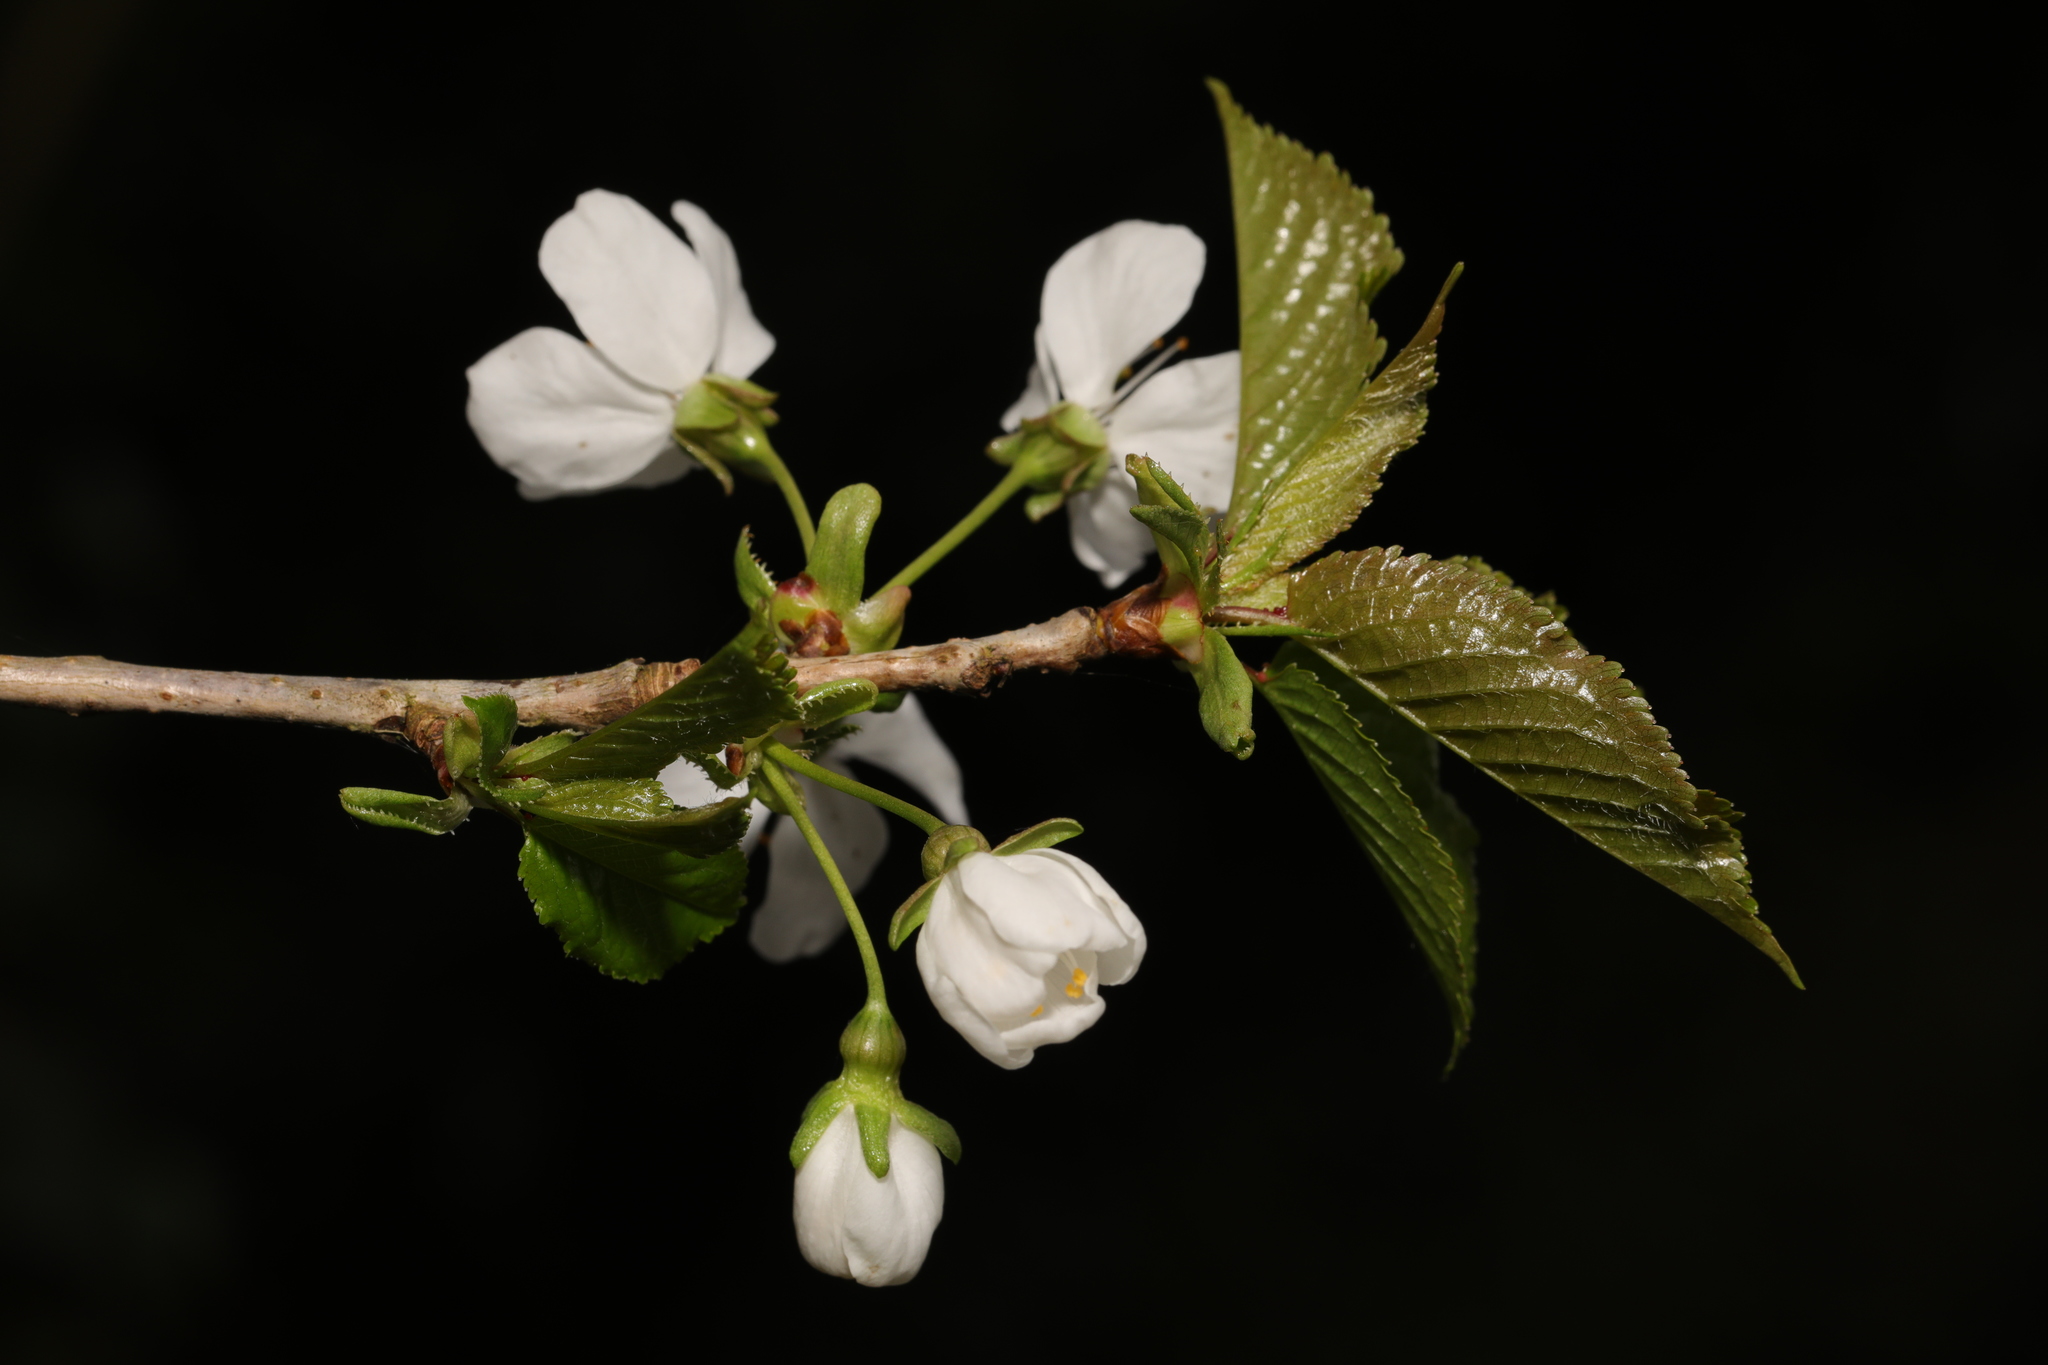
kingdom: Plantae
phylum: Tracheophyta
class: Magnoliopsida
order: Rosales
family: Rosaceae
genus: Prunus
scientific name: Prunus avium
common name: Sweet cherry
